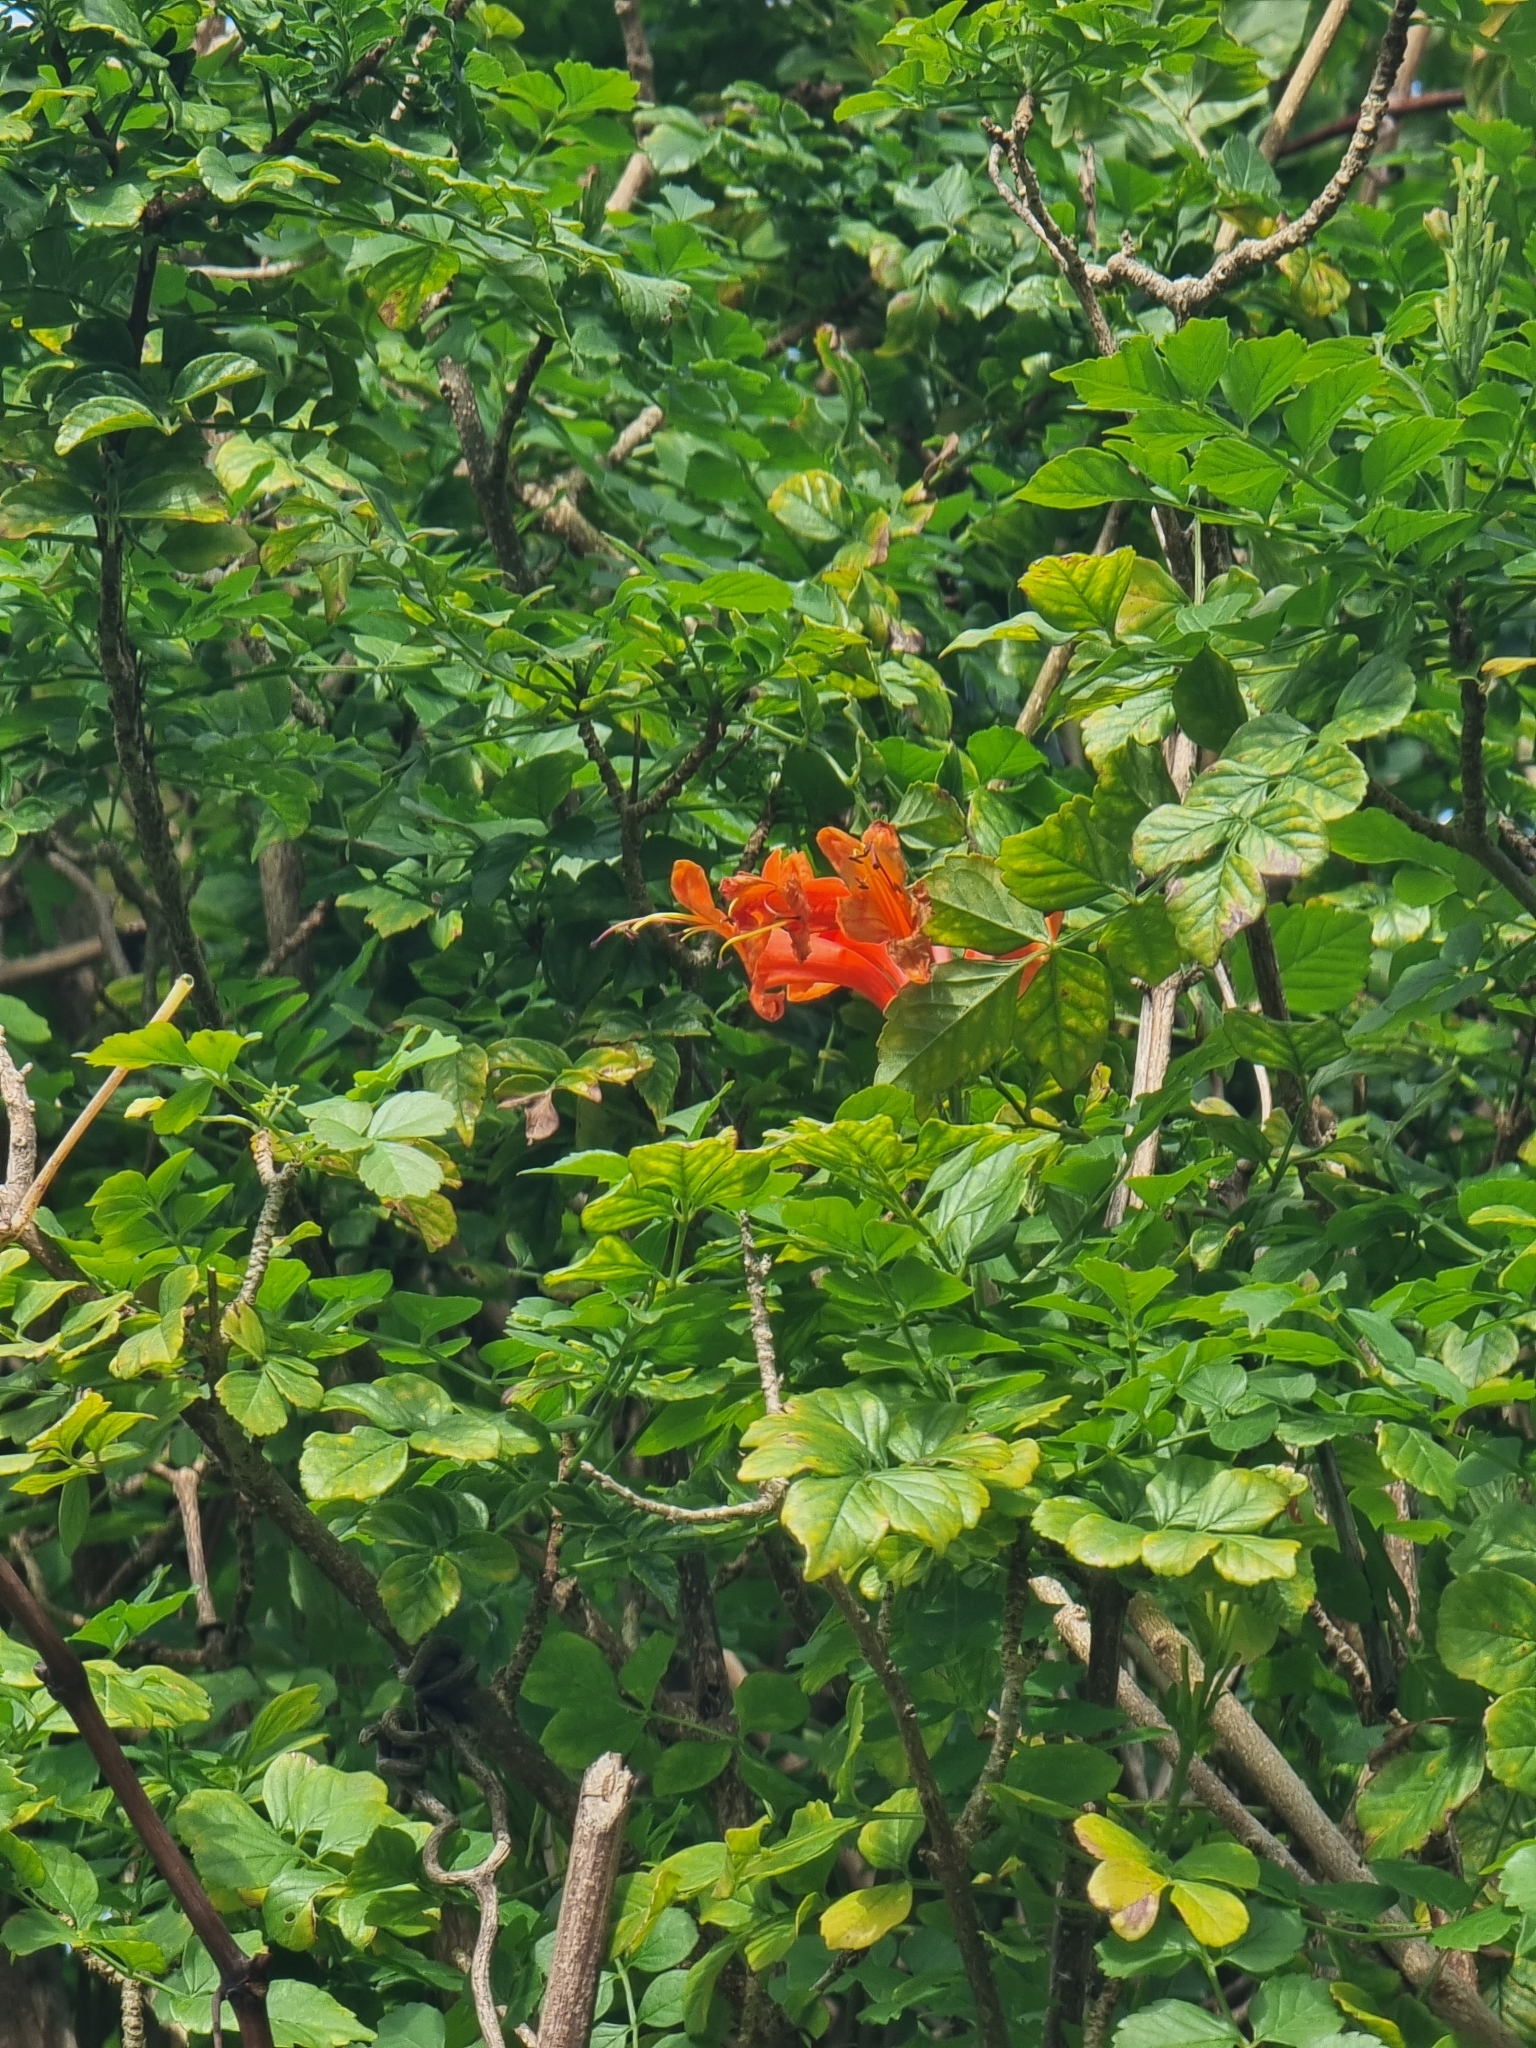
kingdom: Plantae
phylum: Tracheophyta
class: Magnoliopsida
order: Lamiales
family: Bignoniaceae
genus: Tecomaria
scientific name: Tecomaria capensis
